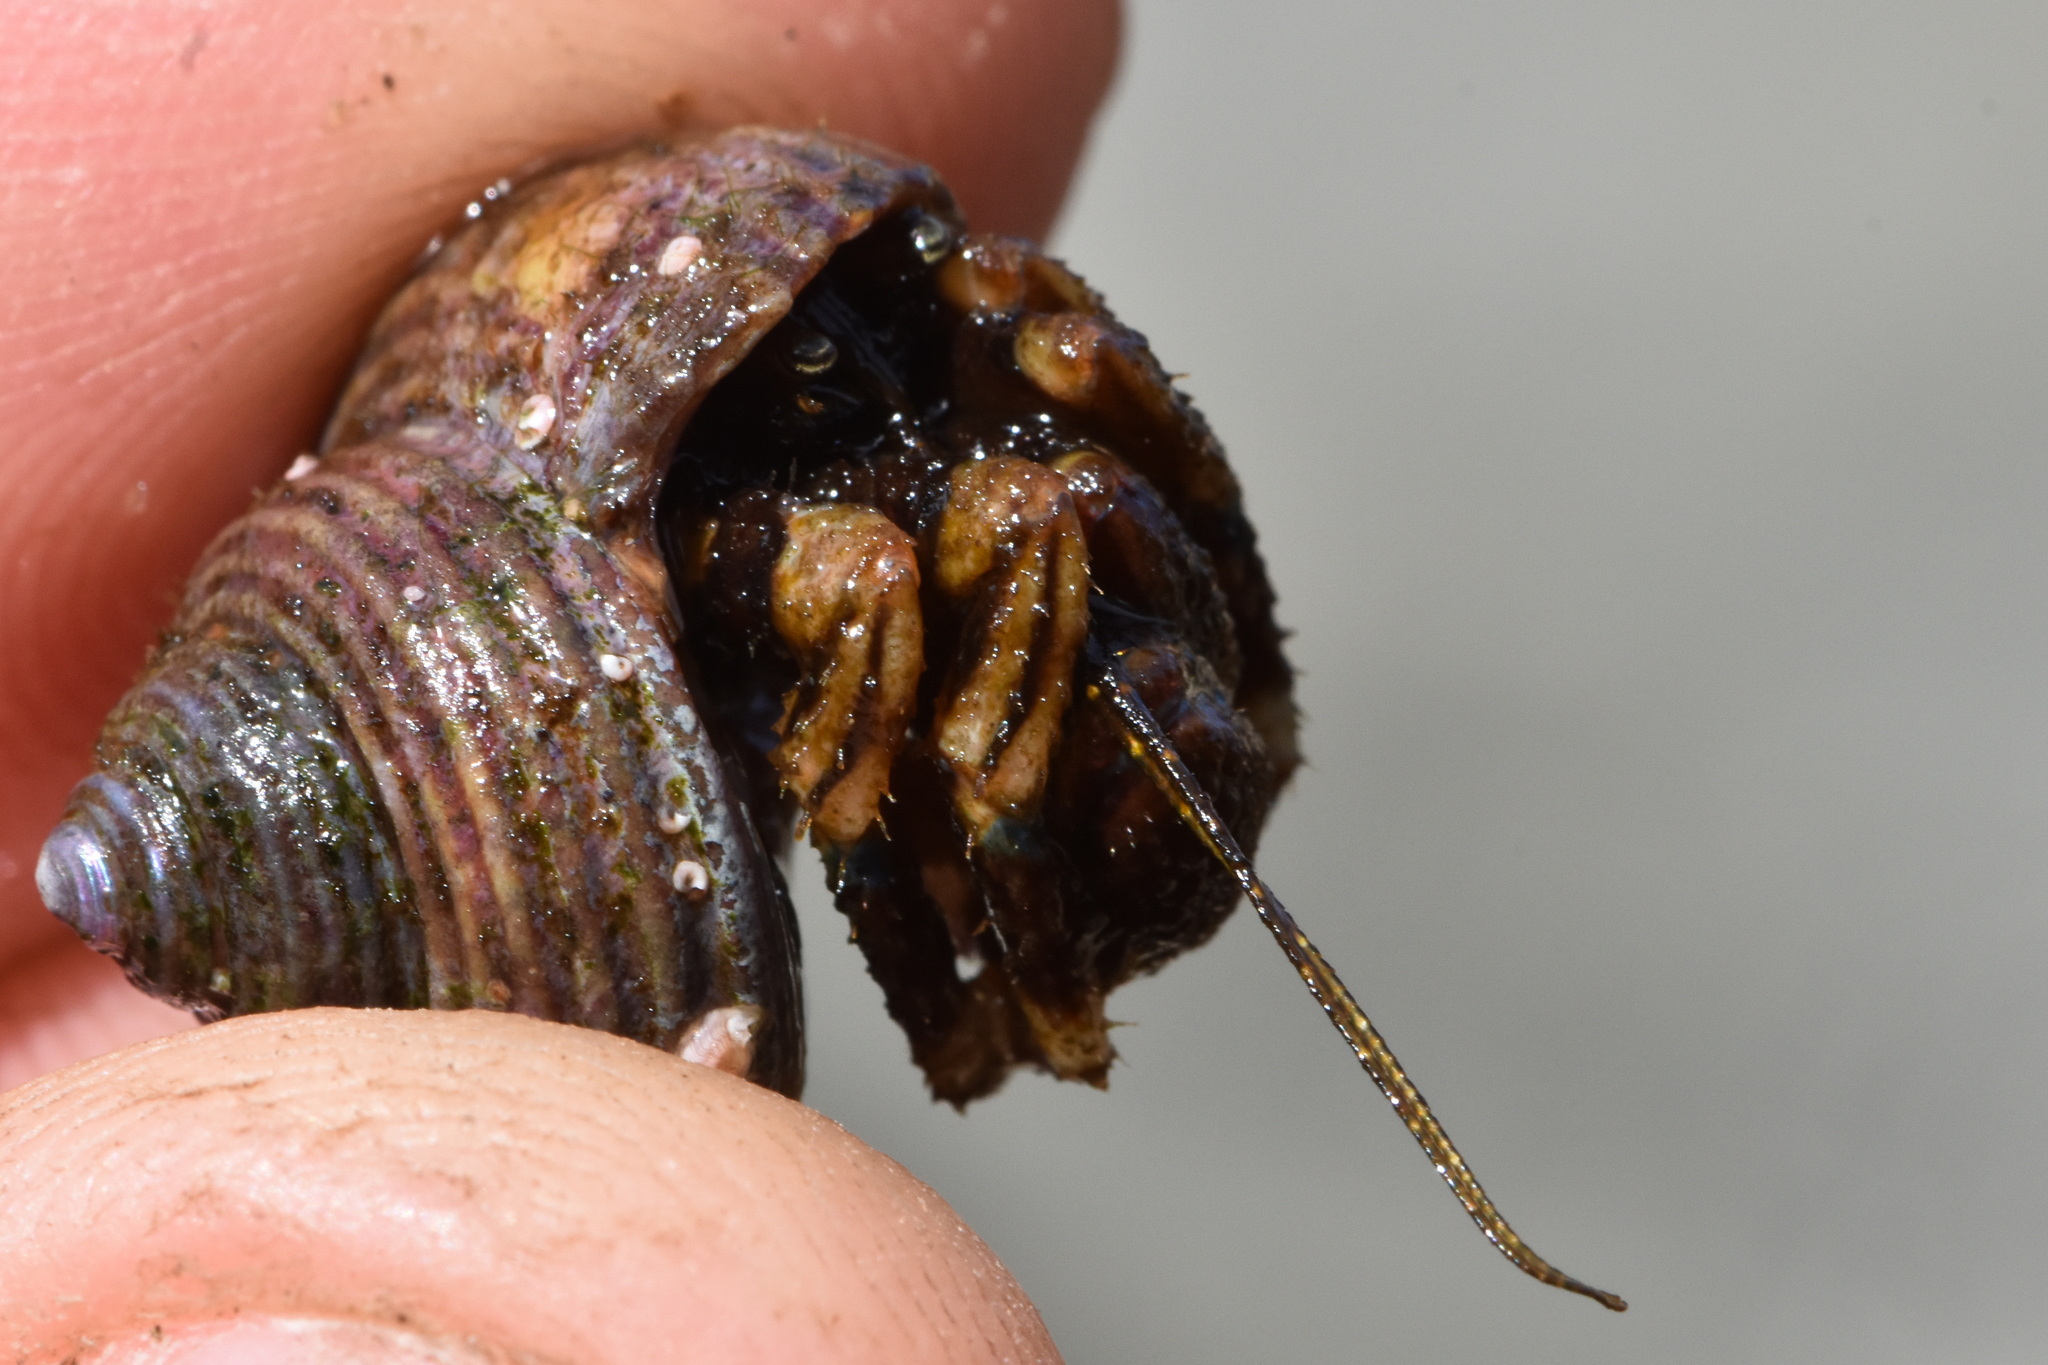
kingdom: Animalia
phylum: Arthropoda
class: Malacostraca
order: Decapoda
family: Paguridae
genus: Pagurus
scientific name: Pagurus hirsutiusculus
